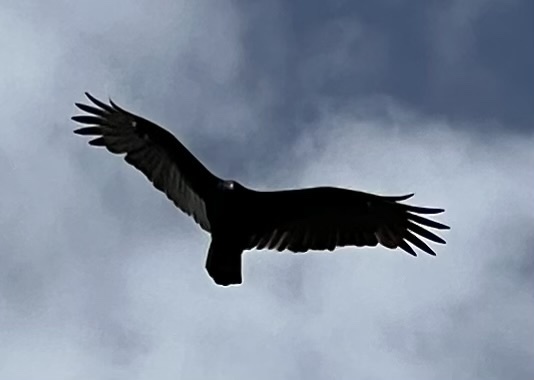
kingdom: Animalia
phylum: Chordata
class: Aves
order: Accipitriformes
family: Cathartidae
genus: Cathartes
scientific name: Cathartes aura
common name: Turkey vulture
